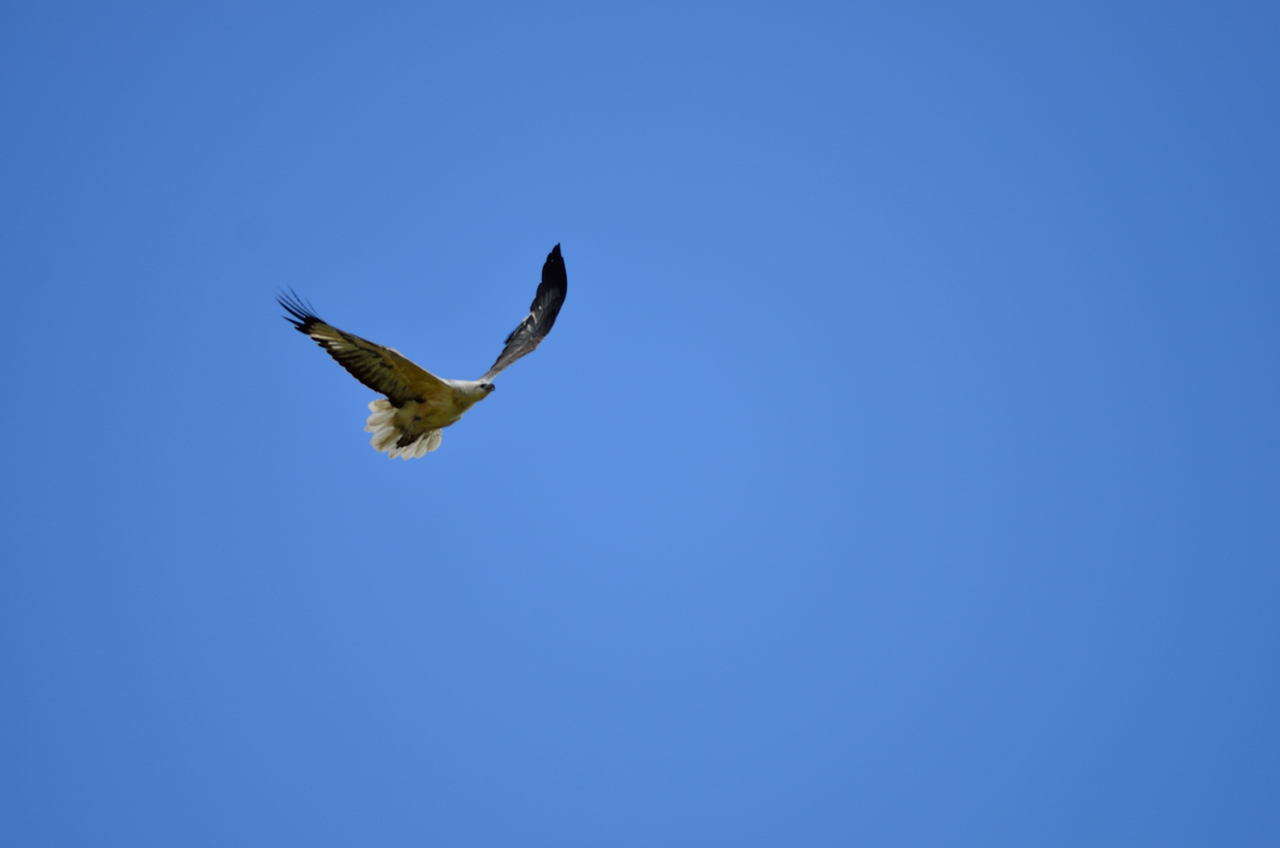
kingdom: Animalia
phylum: Chordata
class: Aves
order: Accipitriformes
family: Accipitridae
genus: Haliaeetus
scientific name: Haliaeetus leucogaster
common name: White-bellied sea eagle
